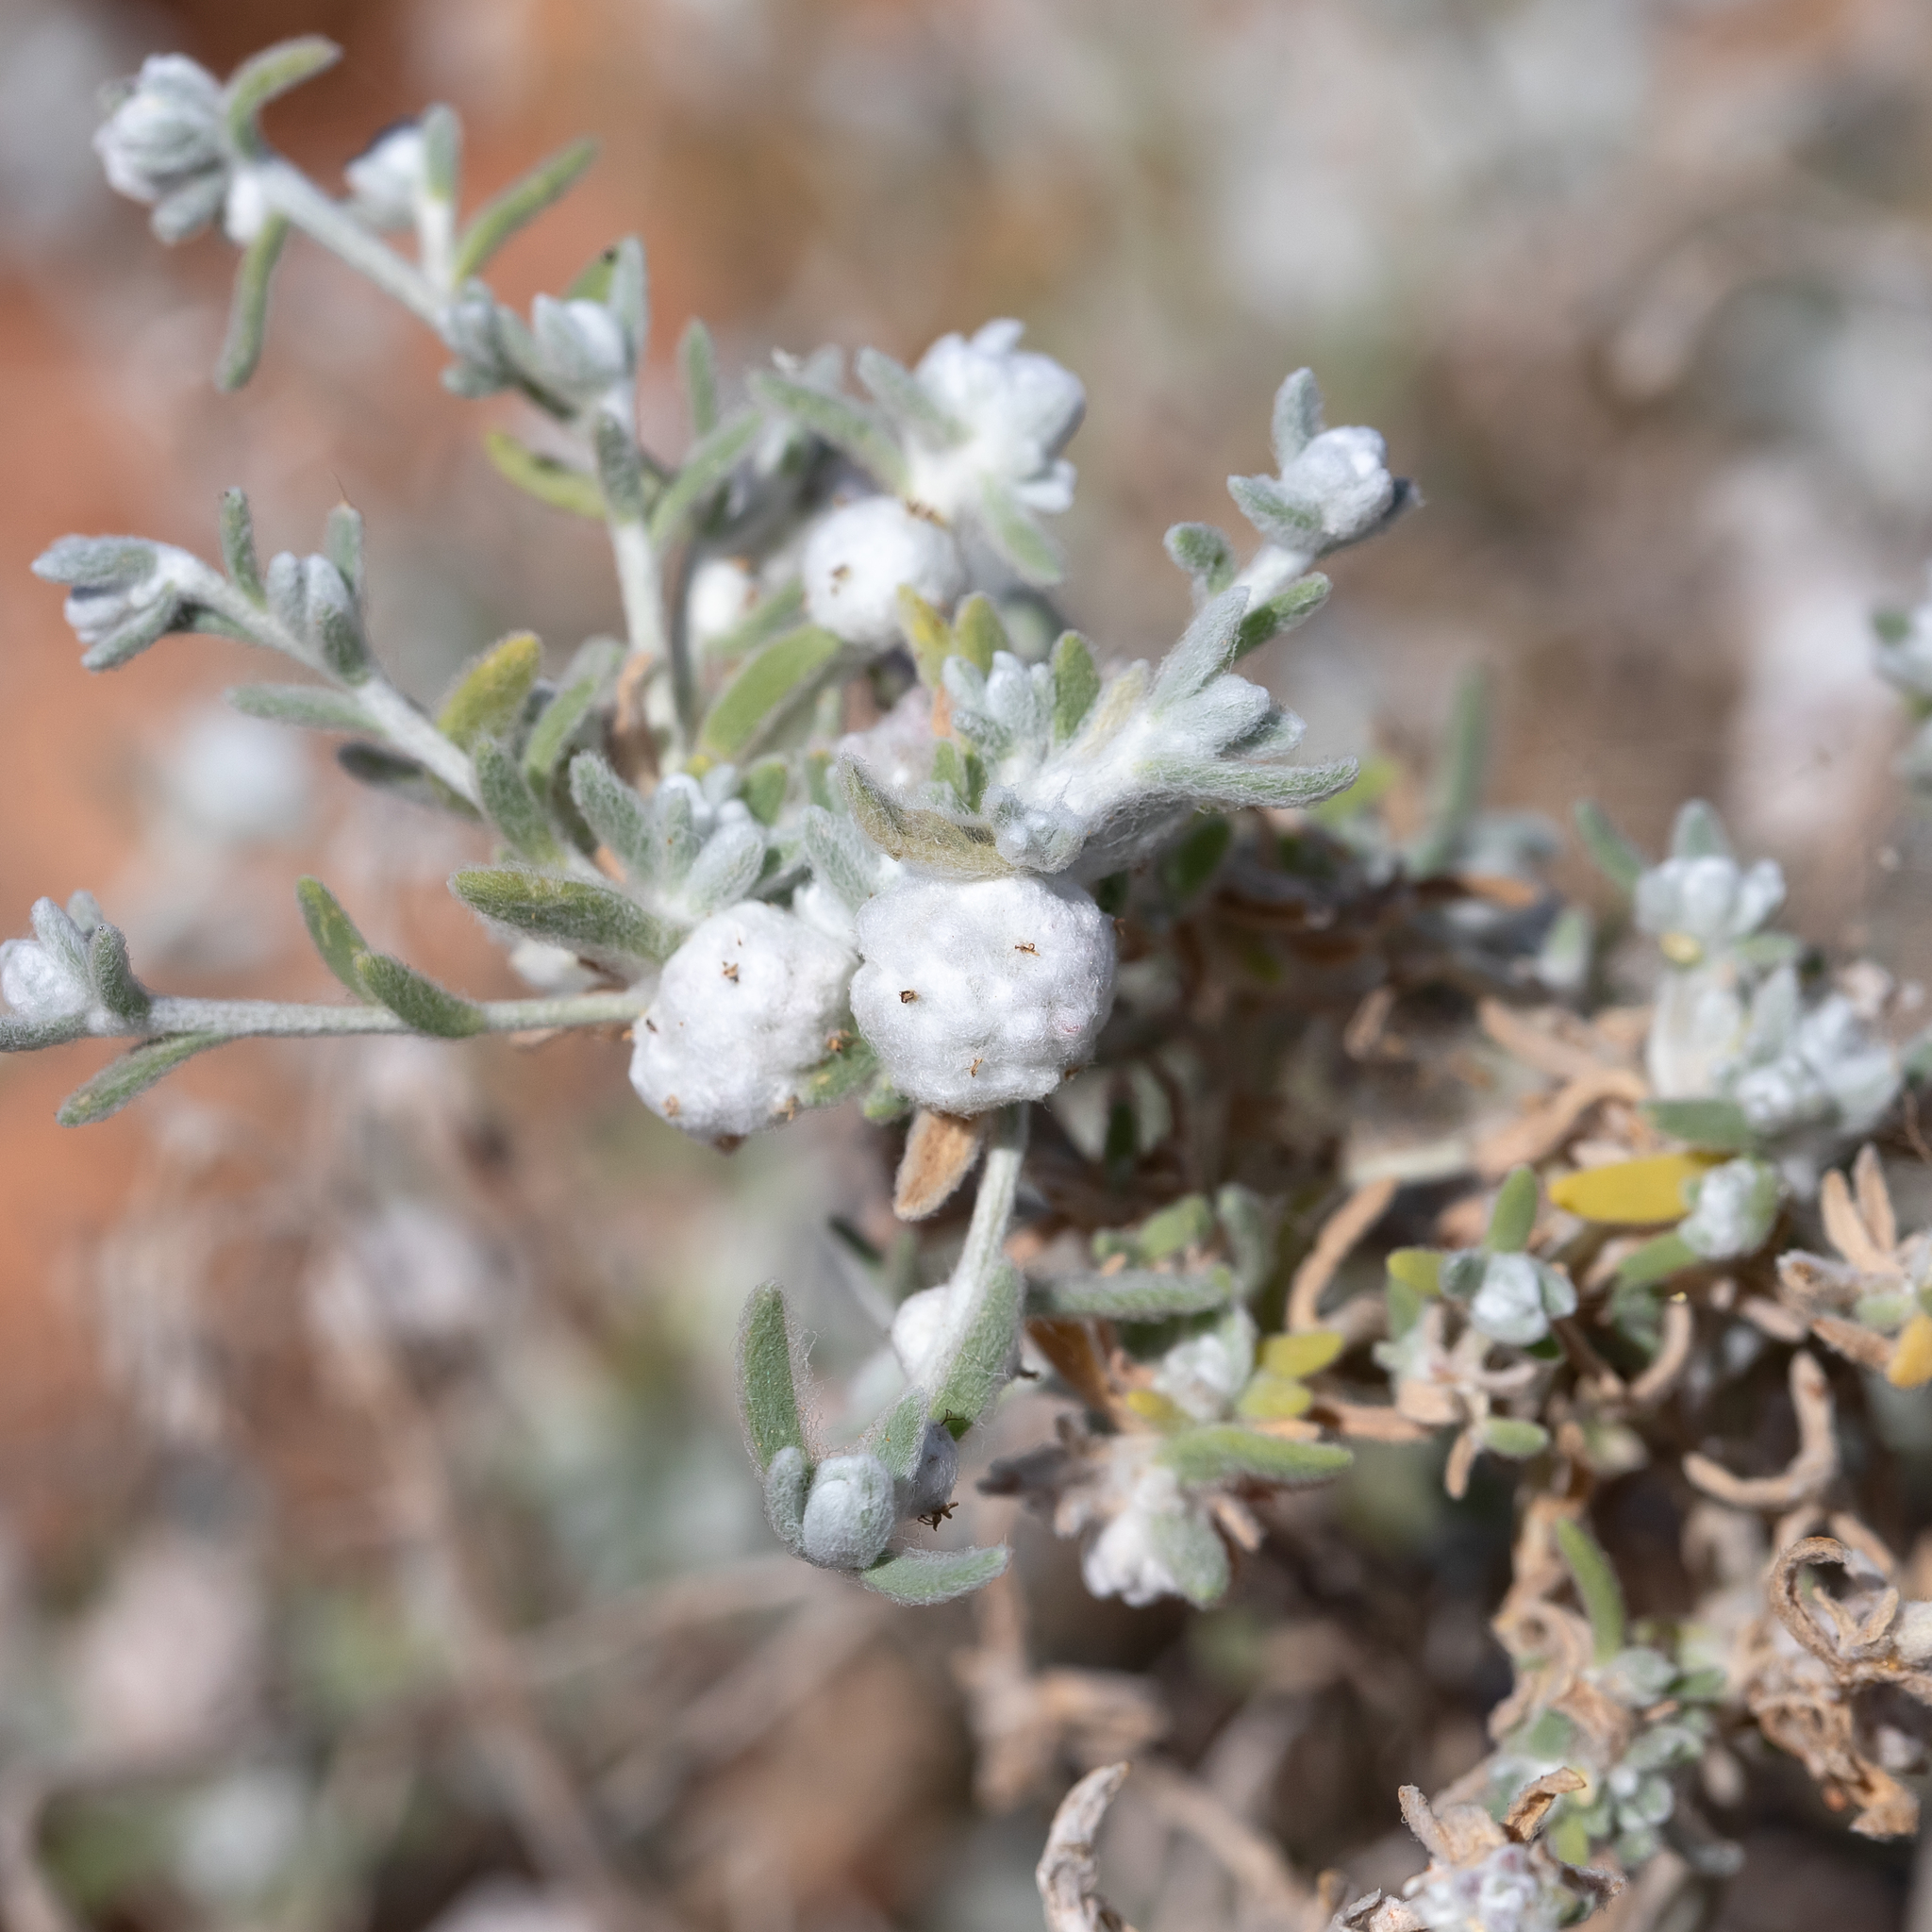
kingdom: Plantae
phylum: Tracheophyta
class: Magnoliopsida
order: Caryophyllales
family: Amaranthaceae
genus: Dissocarpus
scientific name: Dissocarpus paradoxus
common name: Bur-saltbush
